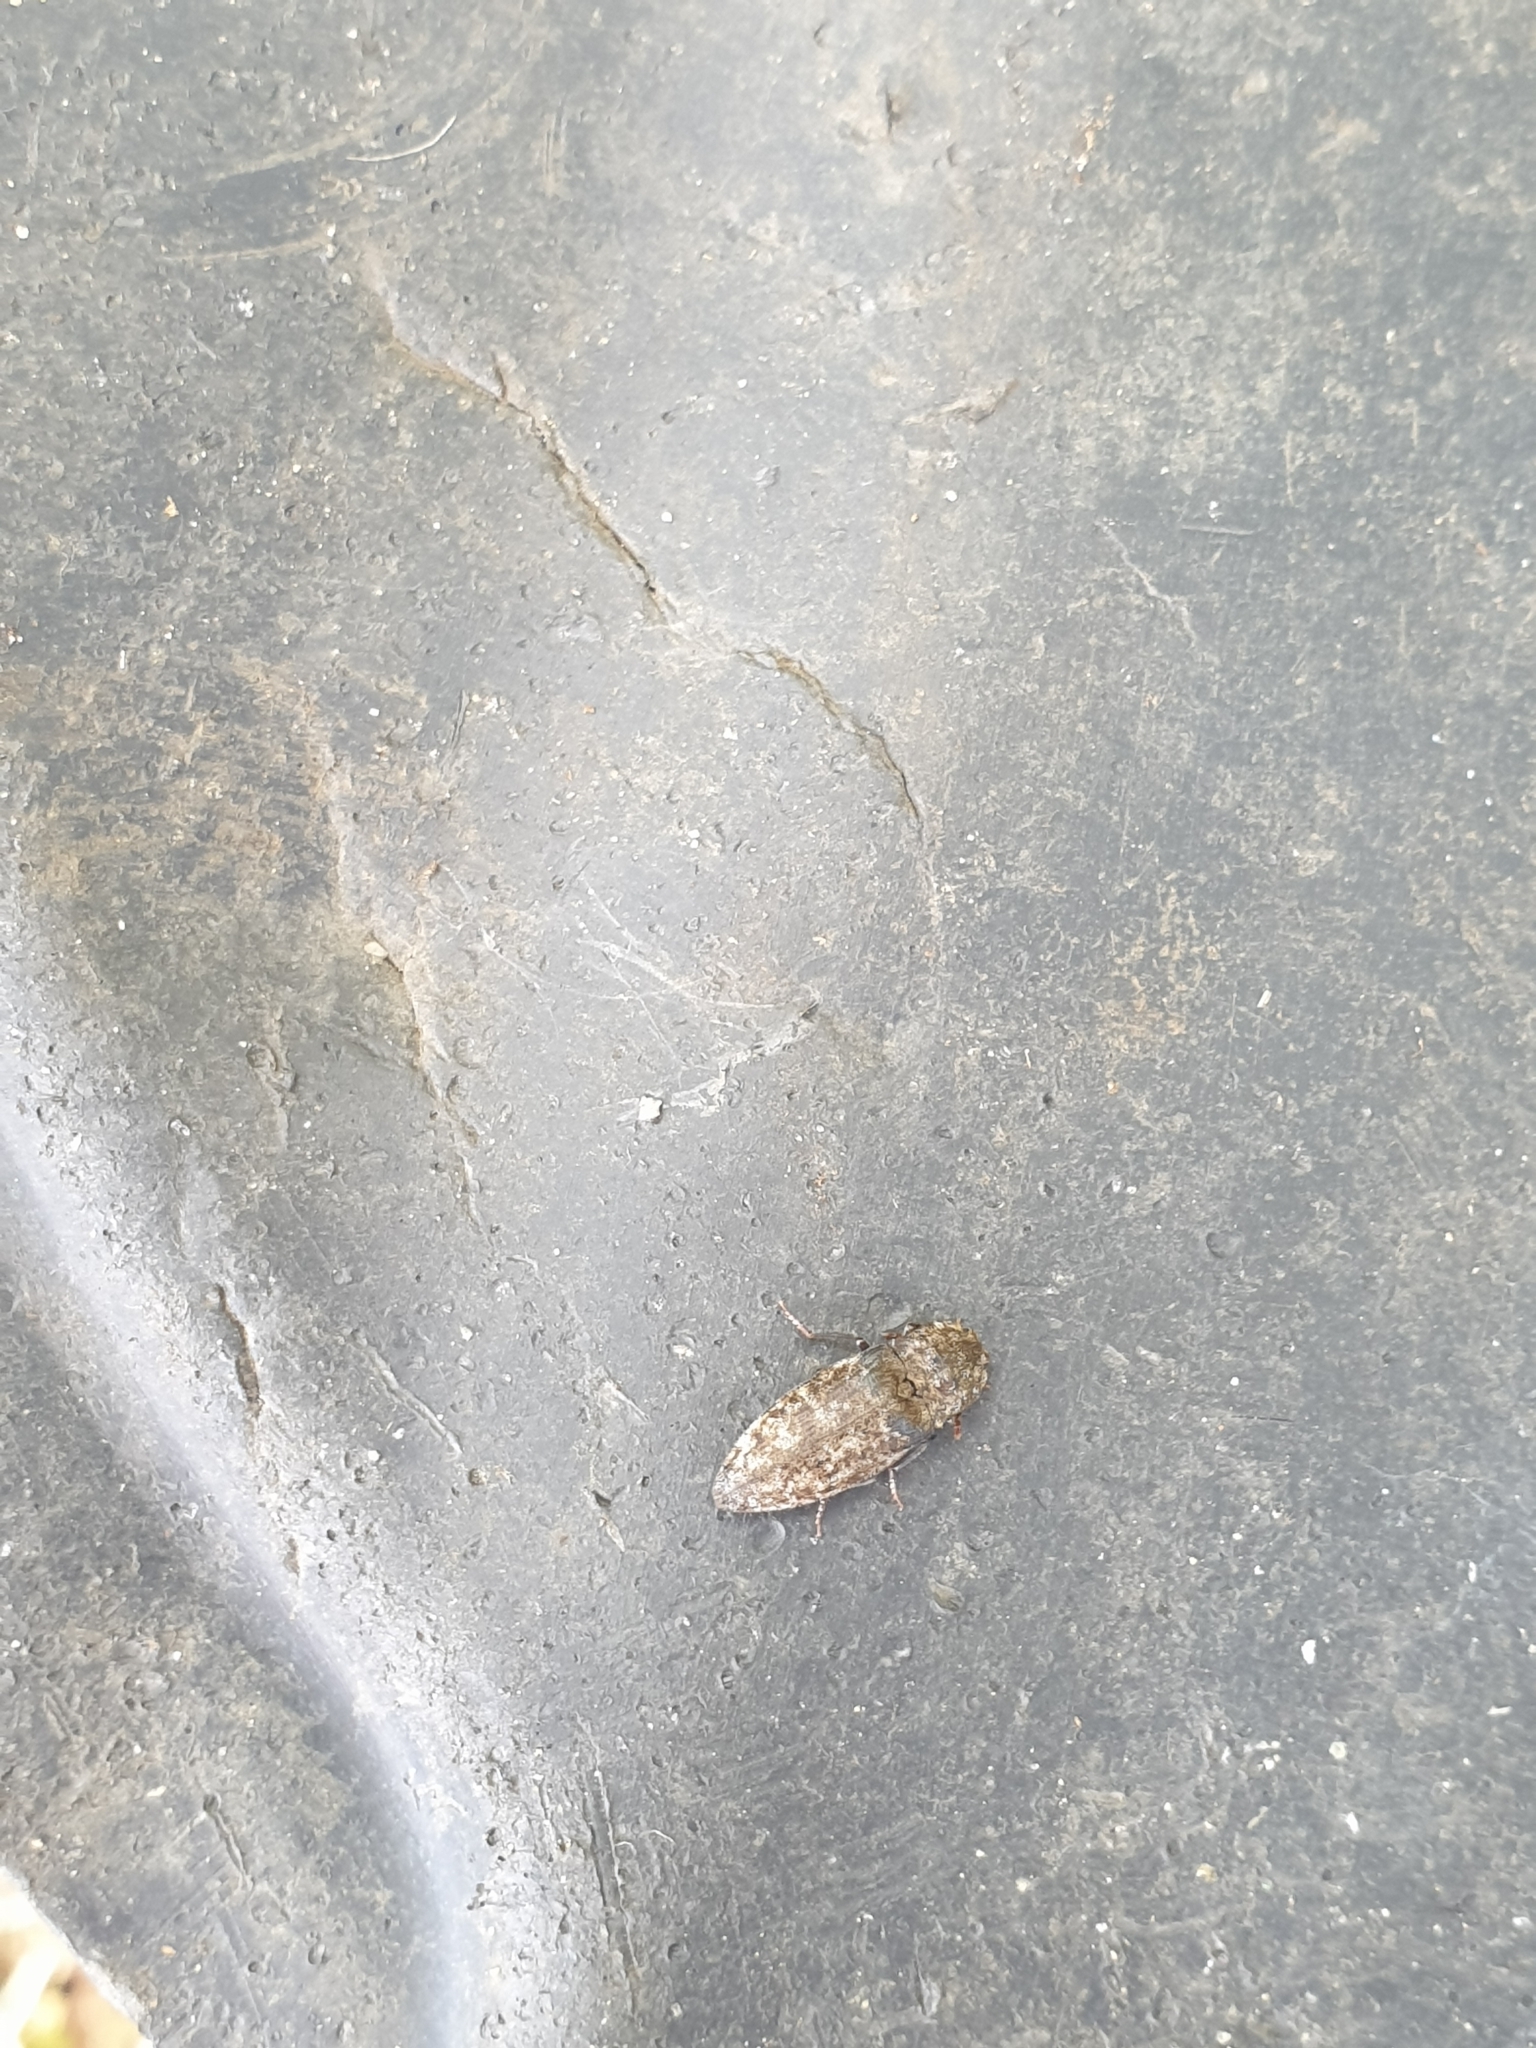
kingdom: Animalia
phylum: Arthropoda
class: Insecta
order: Coleoptera
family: Elateridae
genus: Agrypnus
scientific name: Agrypnus murinus
